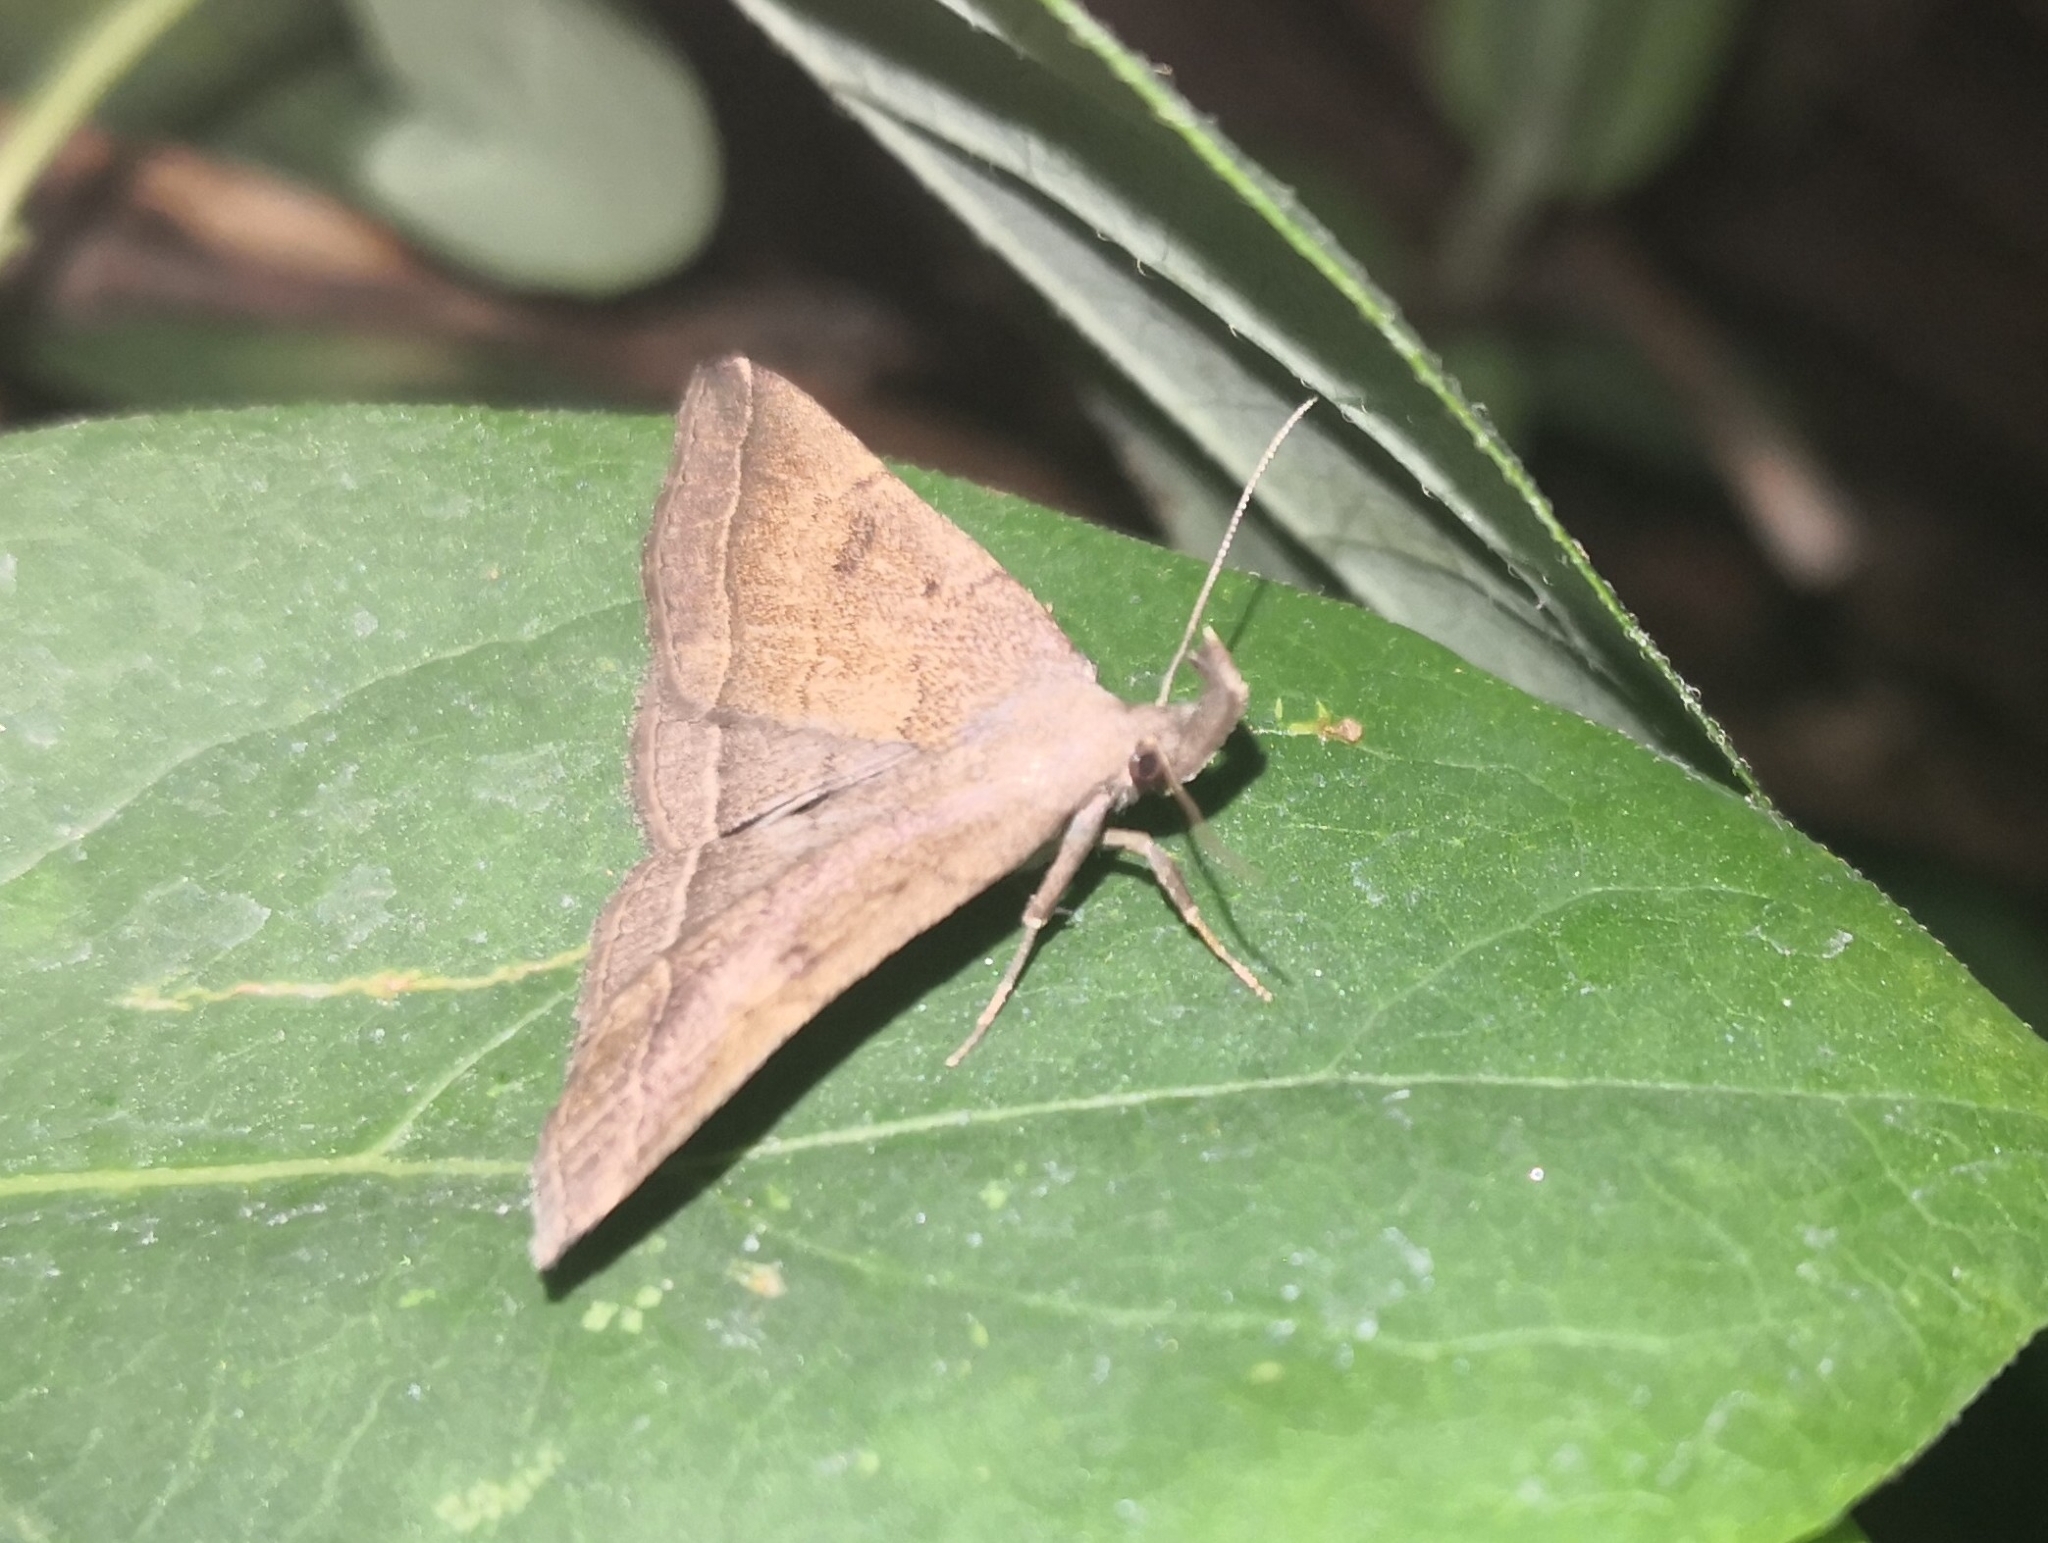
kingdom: Animalia
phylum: Arthropoda
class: Insecta
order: Lepidoptera
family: Erebidae
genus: Pechipogo
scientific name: Pechipogo plumigeralis
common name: Plumed fan-foot
